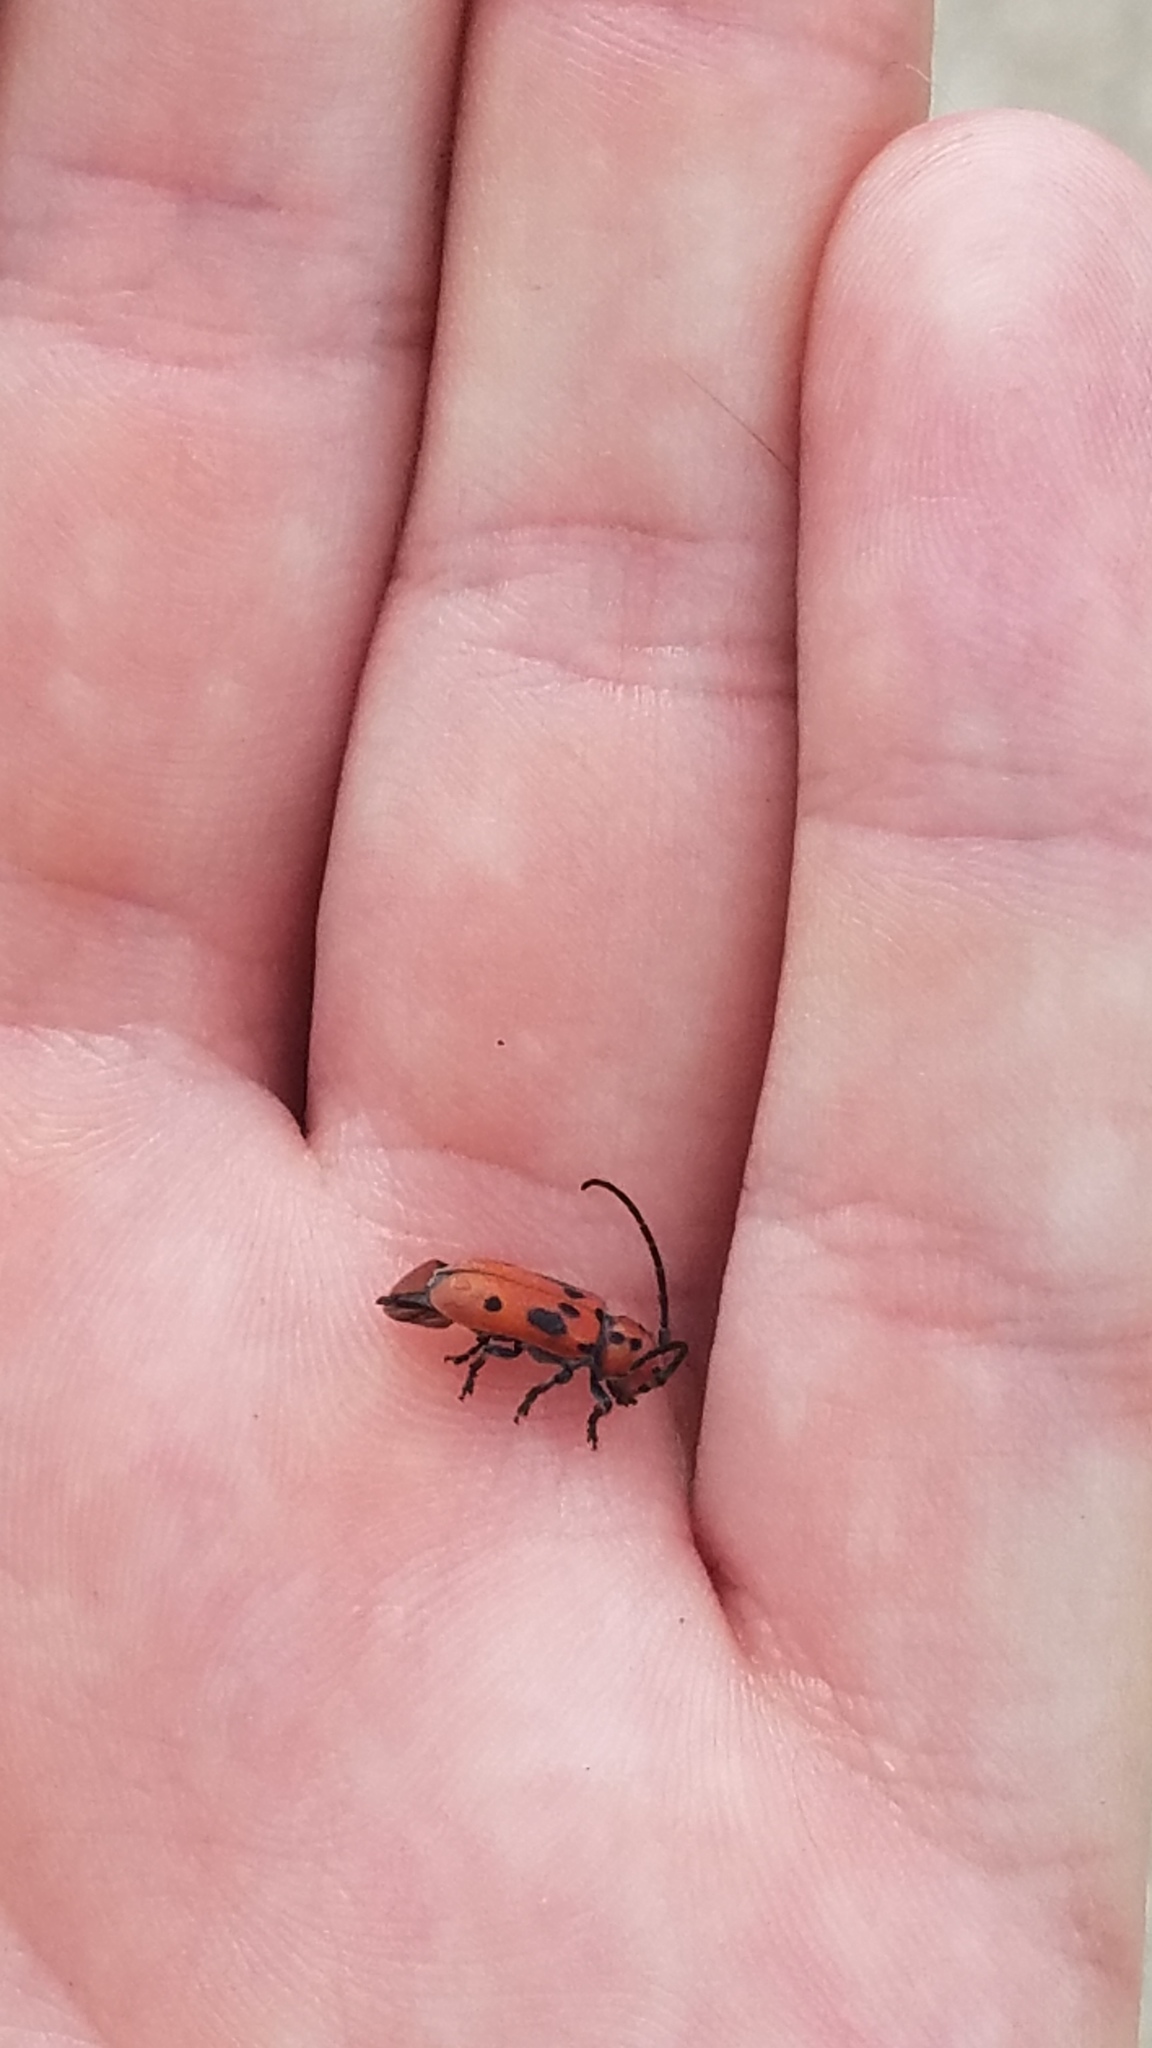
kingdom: Animalia
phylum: Arthropoda
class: Insecta
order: Coleoptera
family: Cerambycidae
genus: Tetraopes
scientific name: Tetraopes tetrophthalmus
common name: Red milkweed beetle
